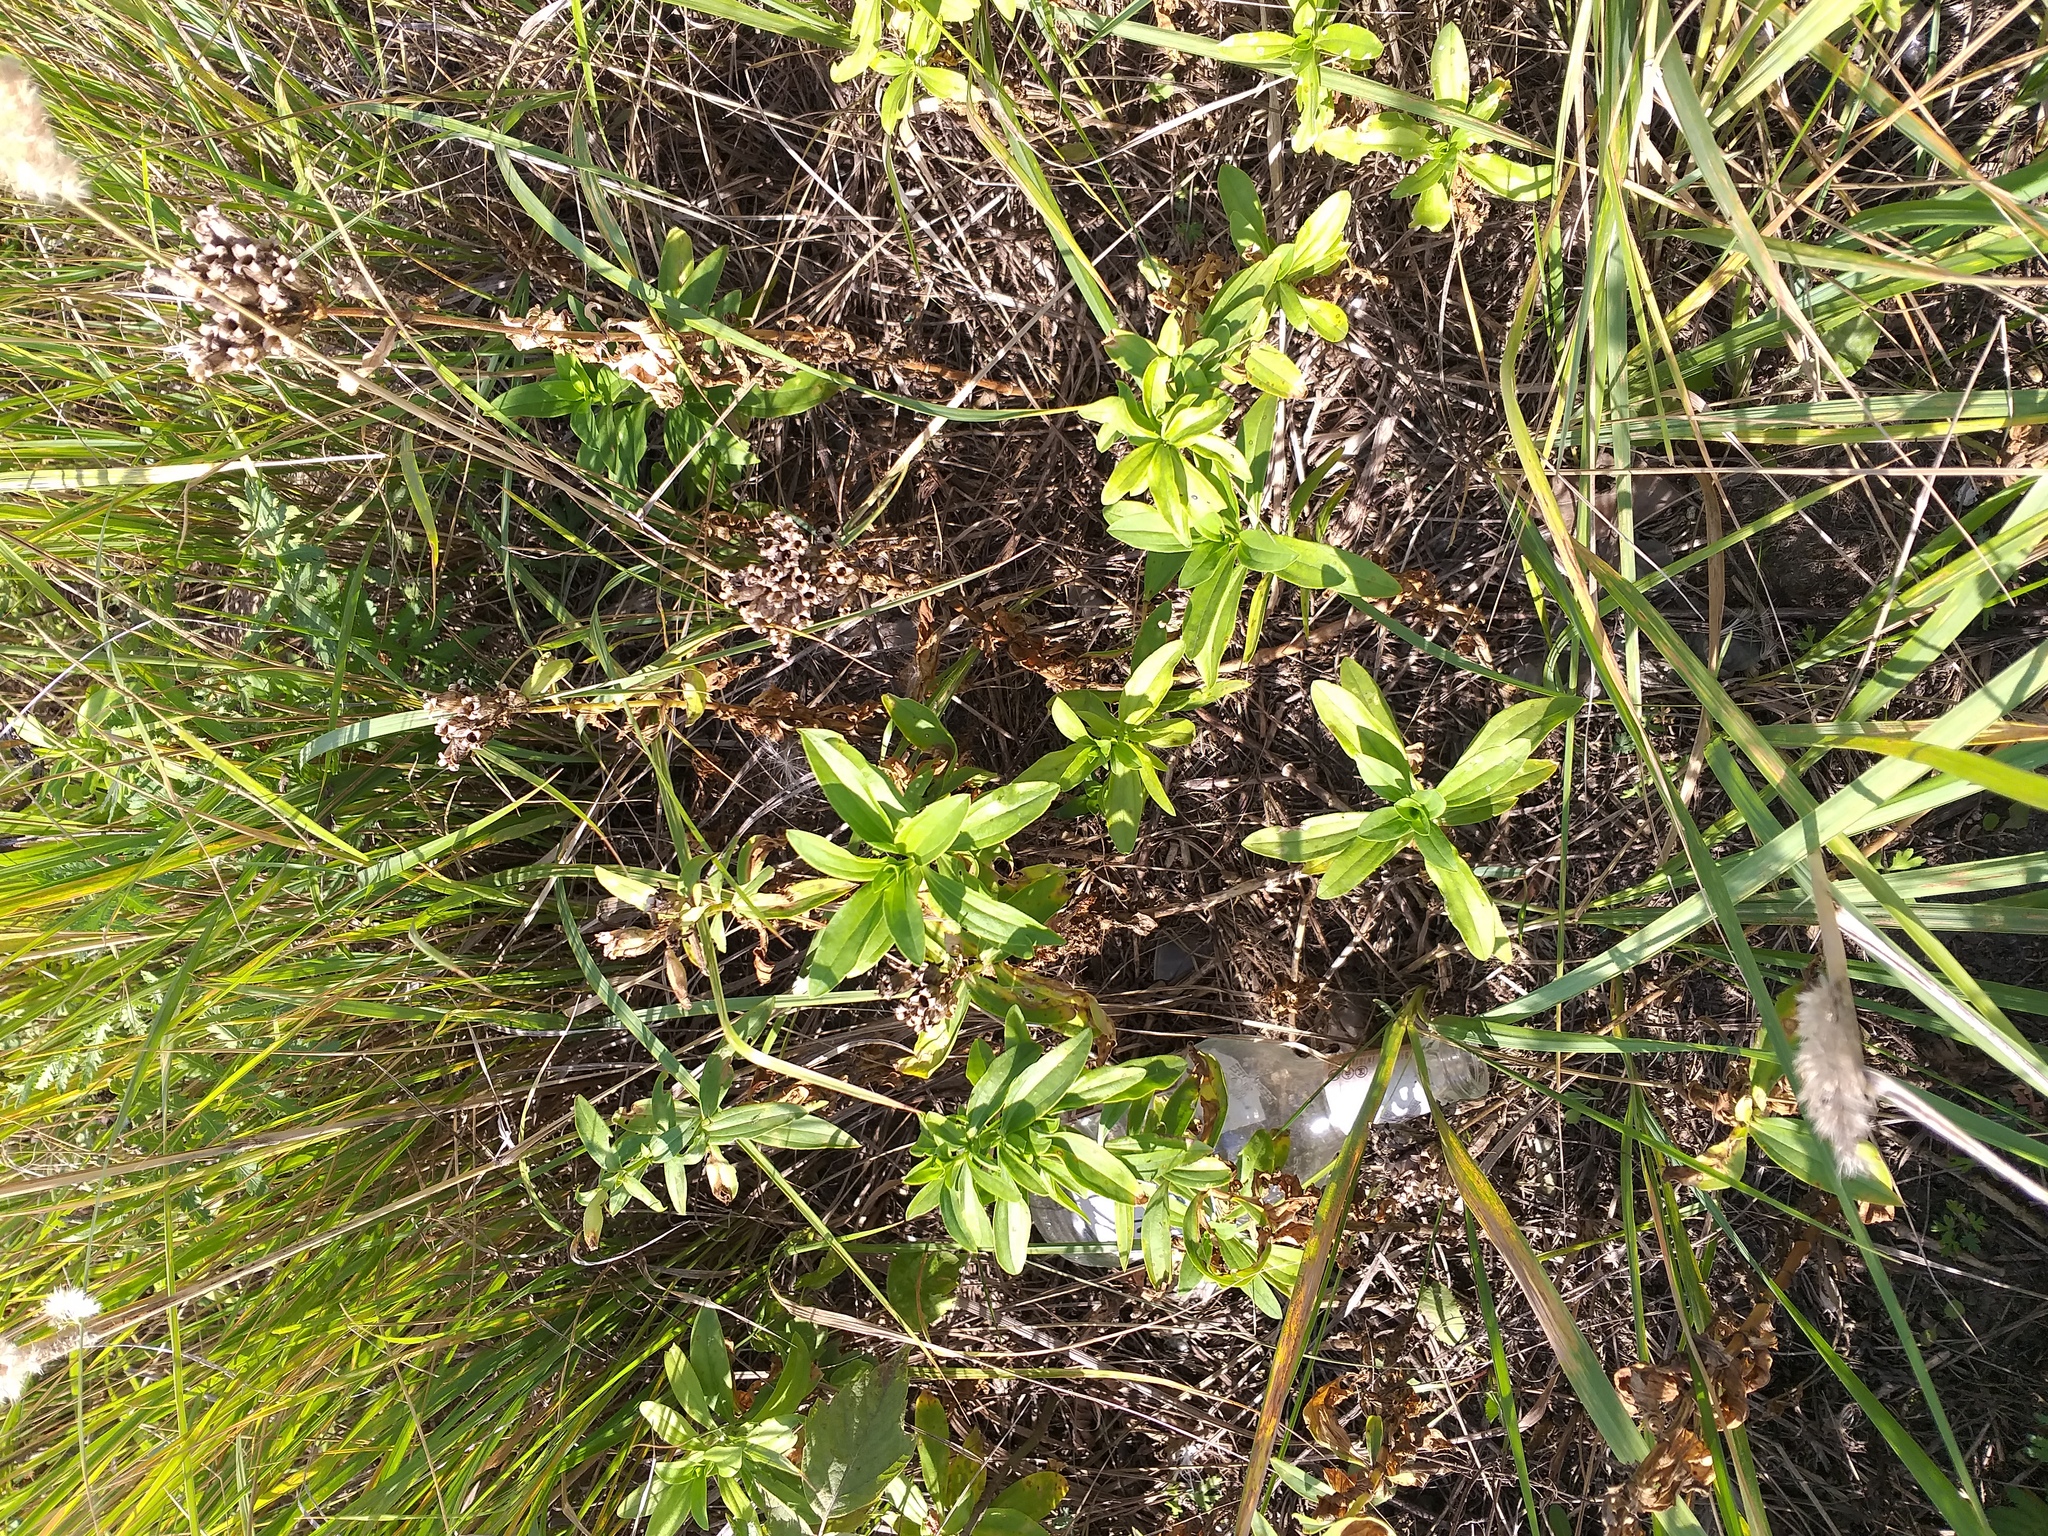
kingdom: Plantae
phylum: Tracheophyta
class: Magnoliopsida
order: Caryophyllales
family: Caryophyllaceae
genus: Dianthus
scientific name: Dianthus barbatus
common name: Sweet-william
